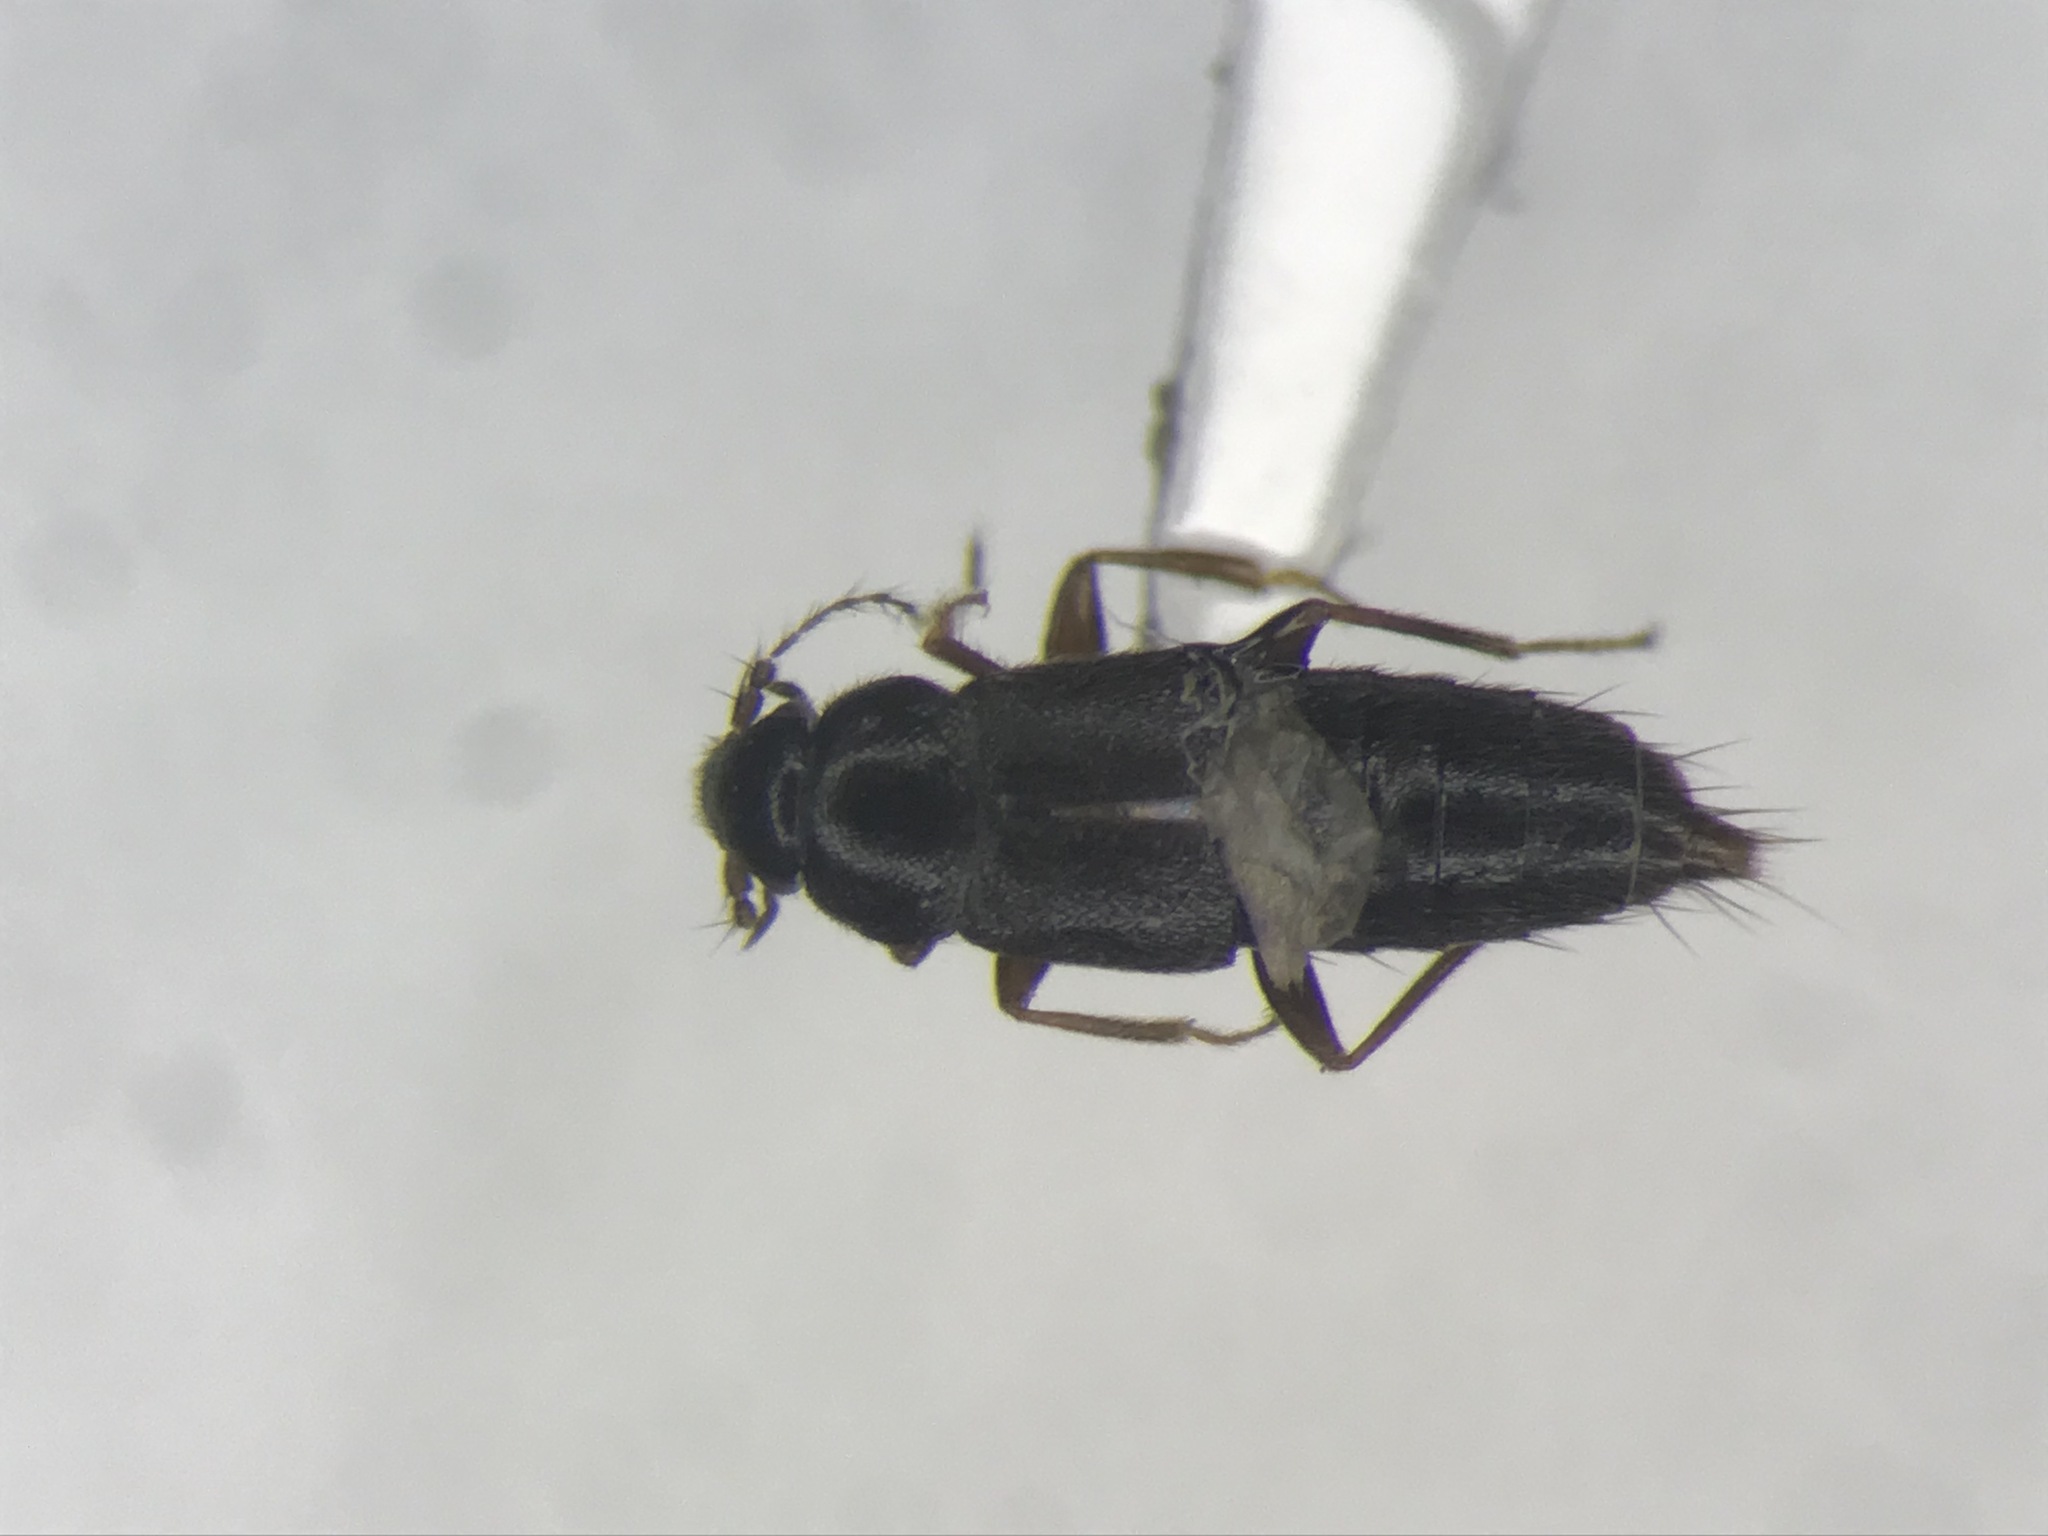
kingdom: Animalia
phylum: Arthropoda
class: Insecta
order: Coleoptera
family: Staphylinidae
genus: Trichophya
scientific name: Trichophya pilicornis
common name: Staph beetle
